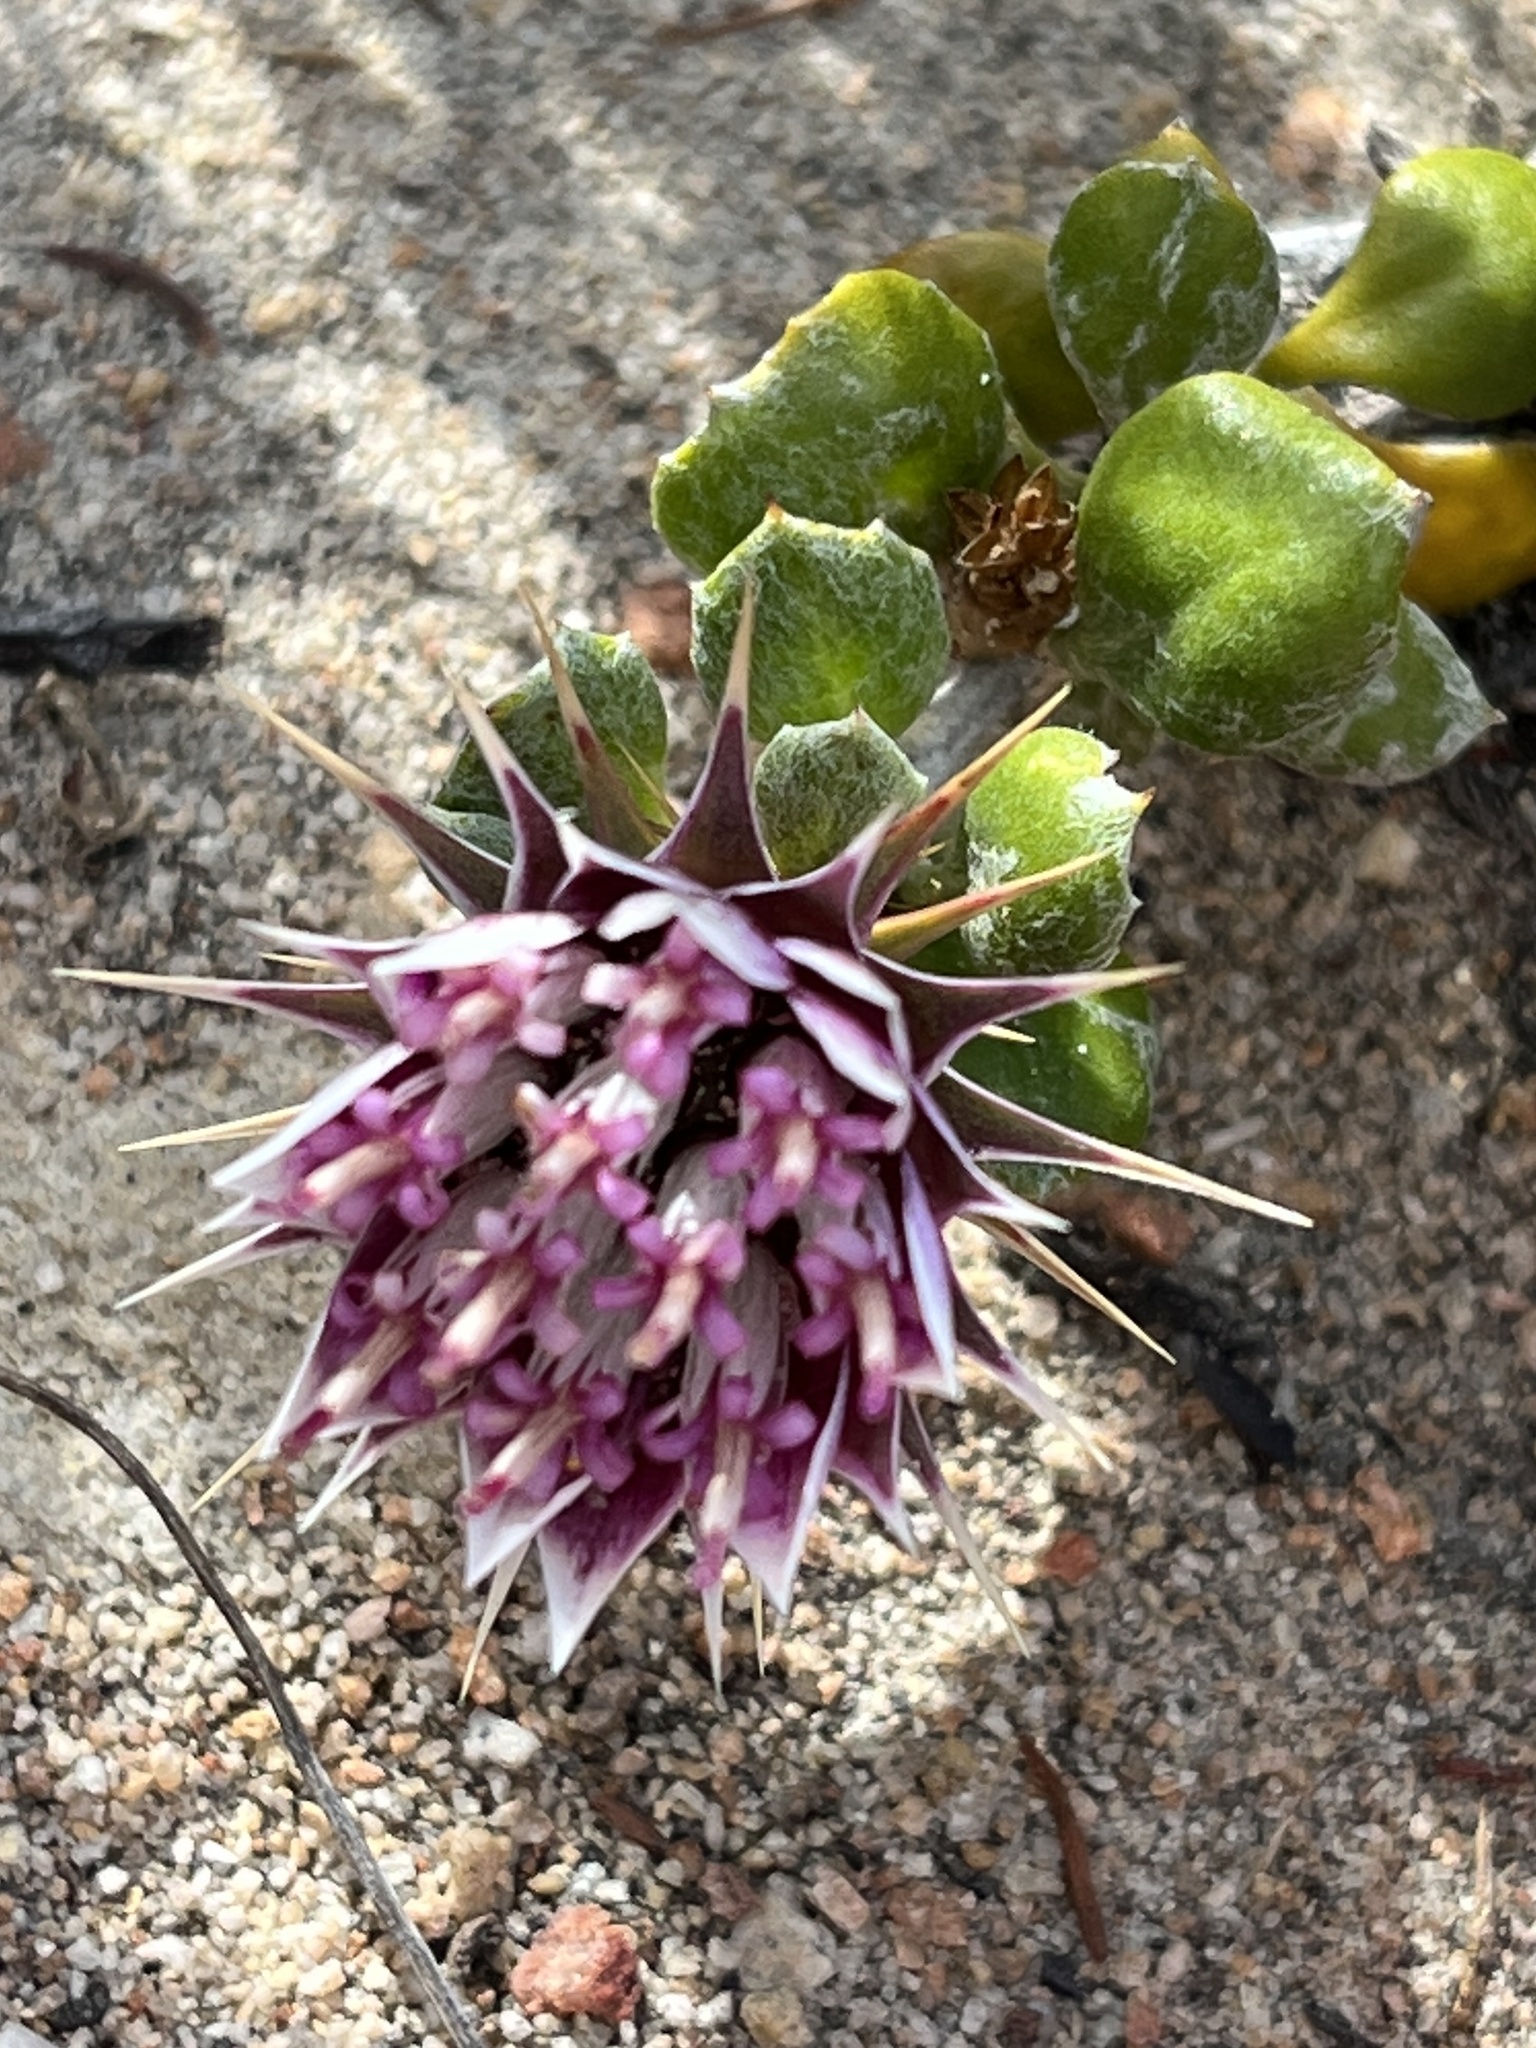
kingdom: Plantae
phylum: Tracheophyta
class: Magnoliopsida
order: Asterales
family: Asteraceae
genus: Macledium
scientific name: Macledium spinosum
